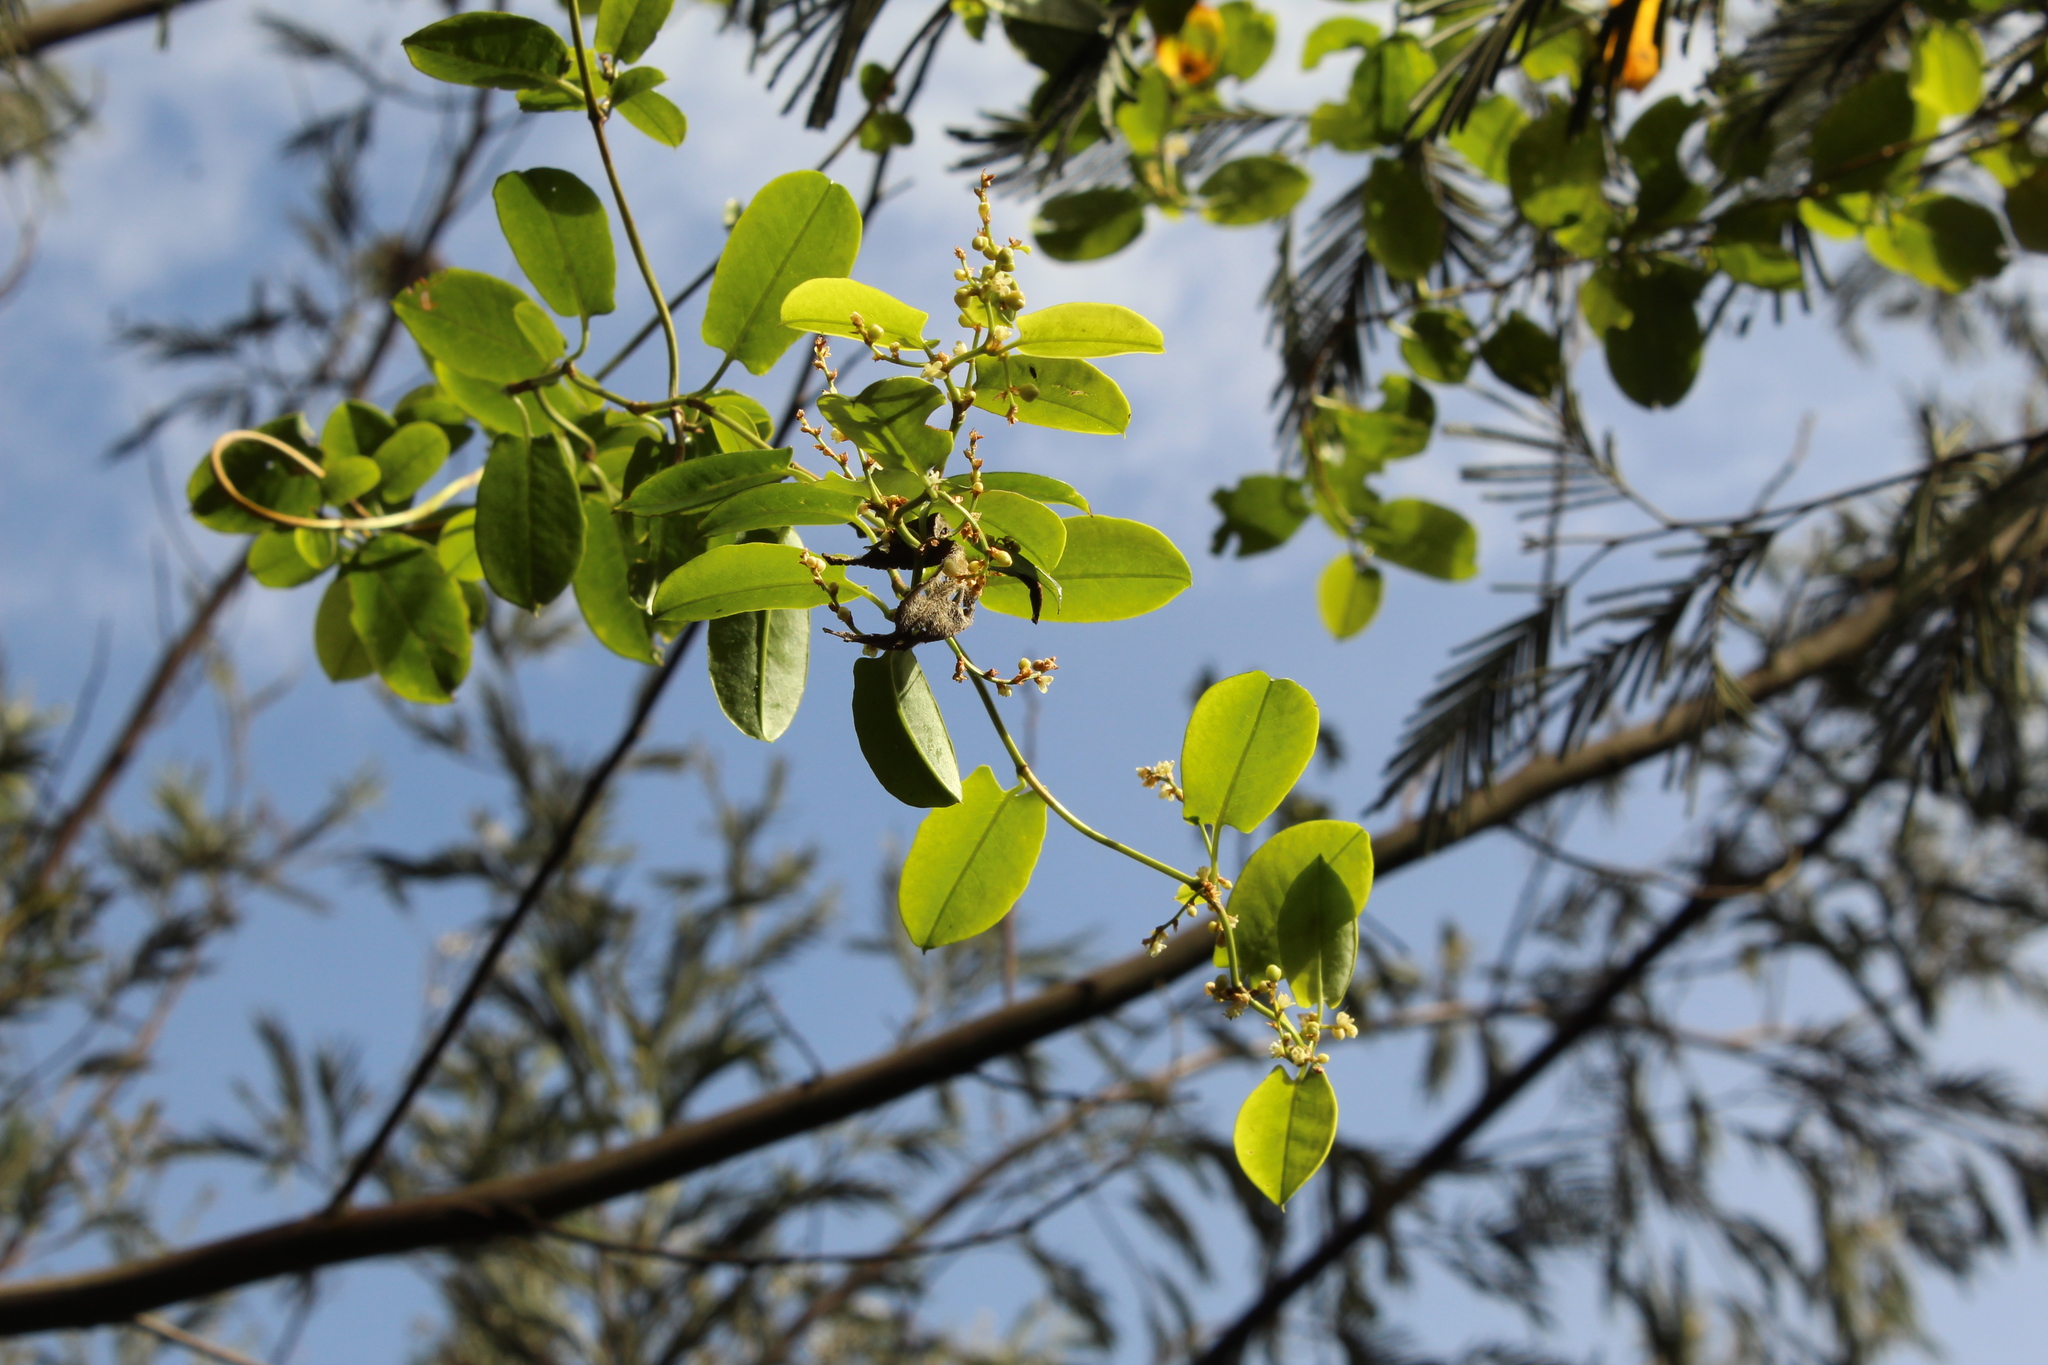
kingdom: Plantae
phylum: Tracheophyta
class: Magnoliopsida
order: Caryophyllales
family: Polygonaceae
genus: Muehlenbeckia
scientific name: Muehlenbeckia tamnifolia
